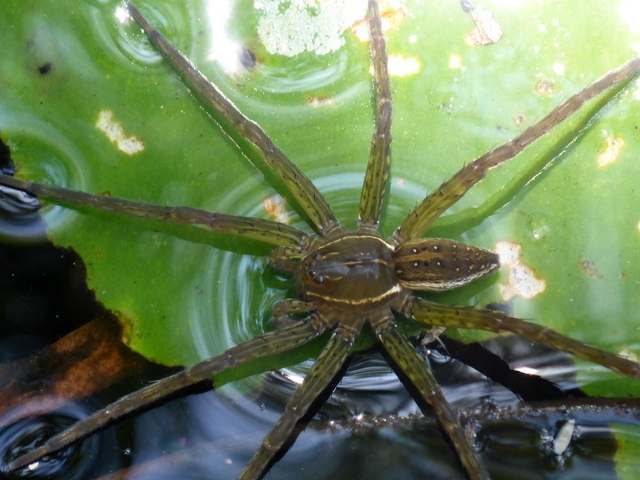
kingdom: Animalia
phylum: Arthropoda
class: Arachnida
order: Araneae
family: Pisauridae
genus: Dolomedes
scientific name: Dolomedes triton
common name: Six-spotted fishing spider
